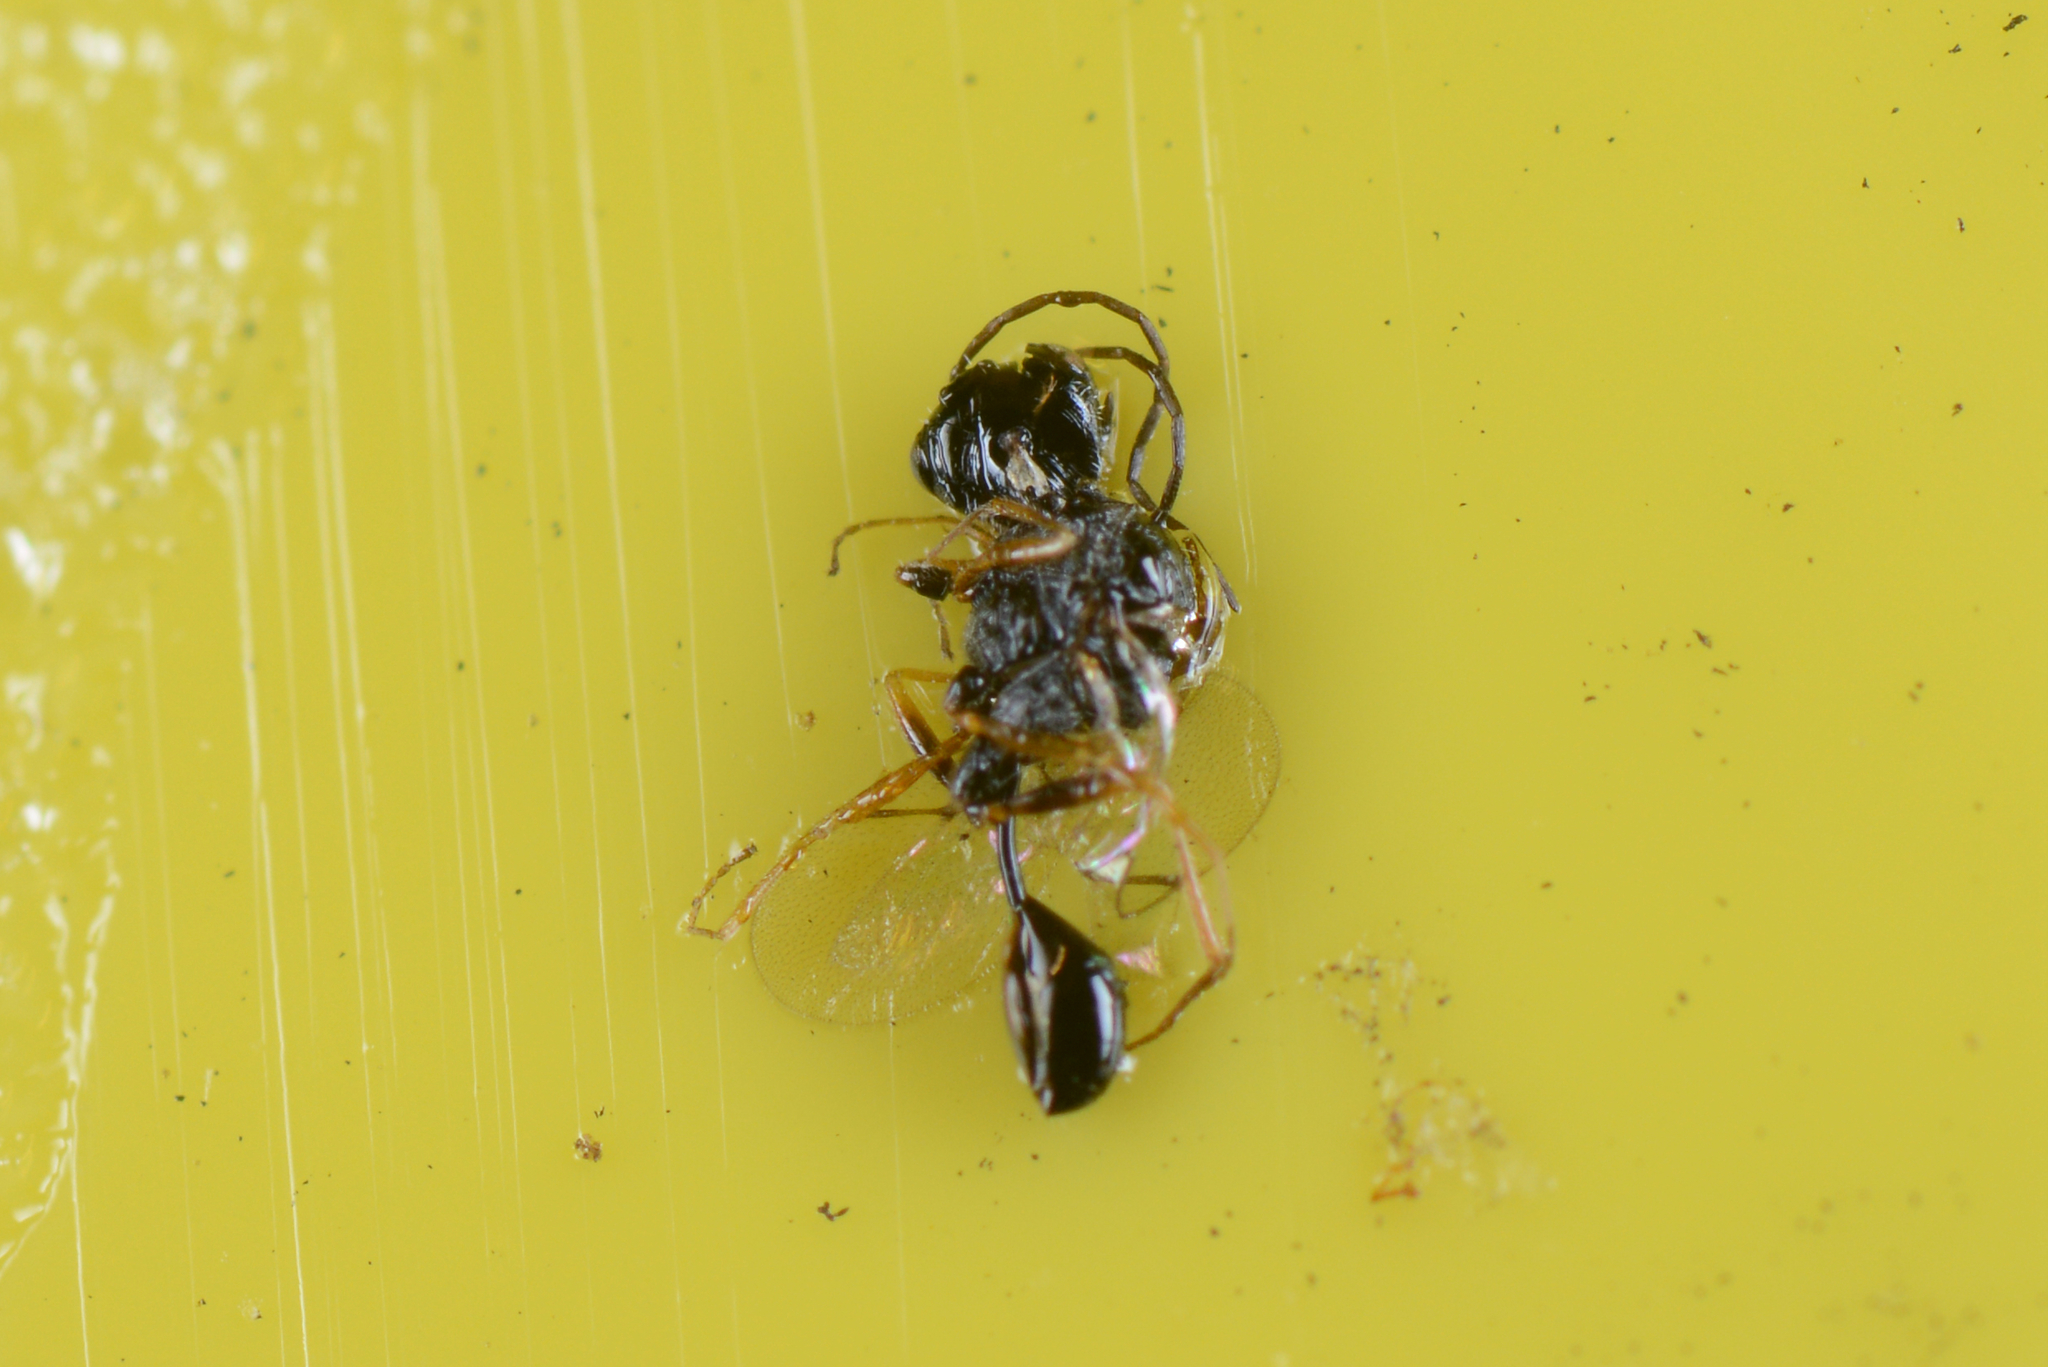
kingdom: Animalia
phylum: Arthropoda
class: Insecta
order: Hymenoptera
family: Figitidae
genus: Anacharis
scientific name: Anacharis zealandica
